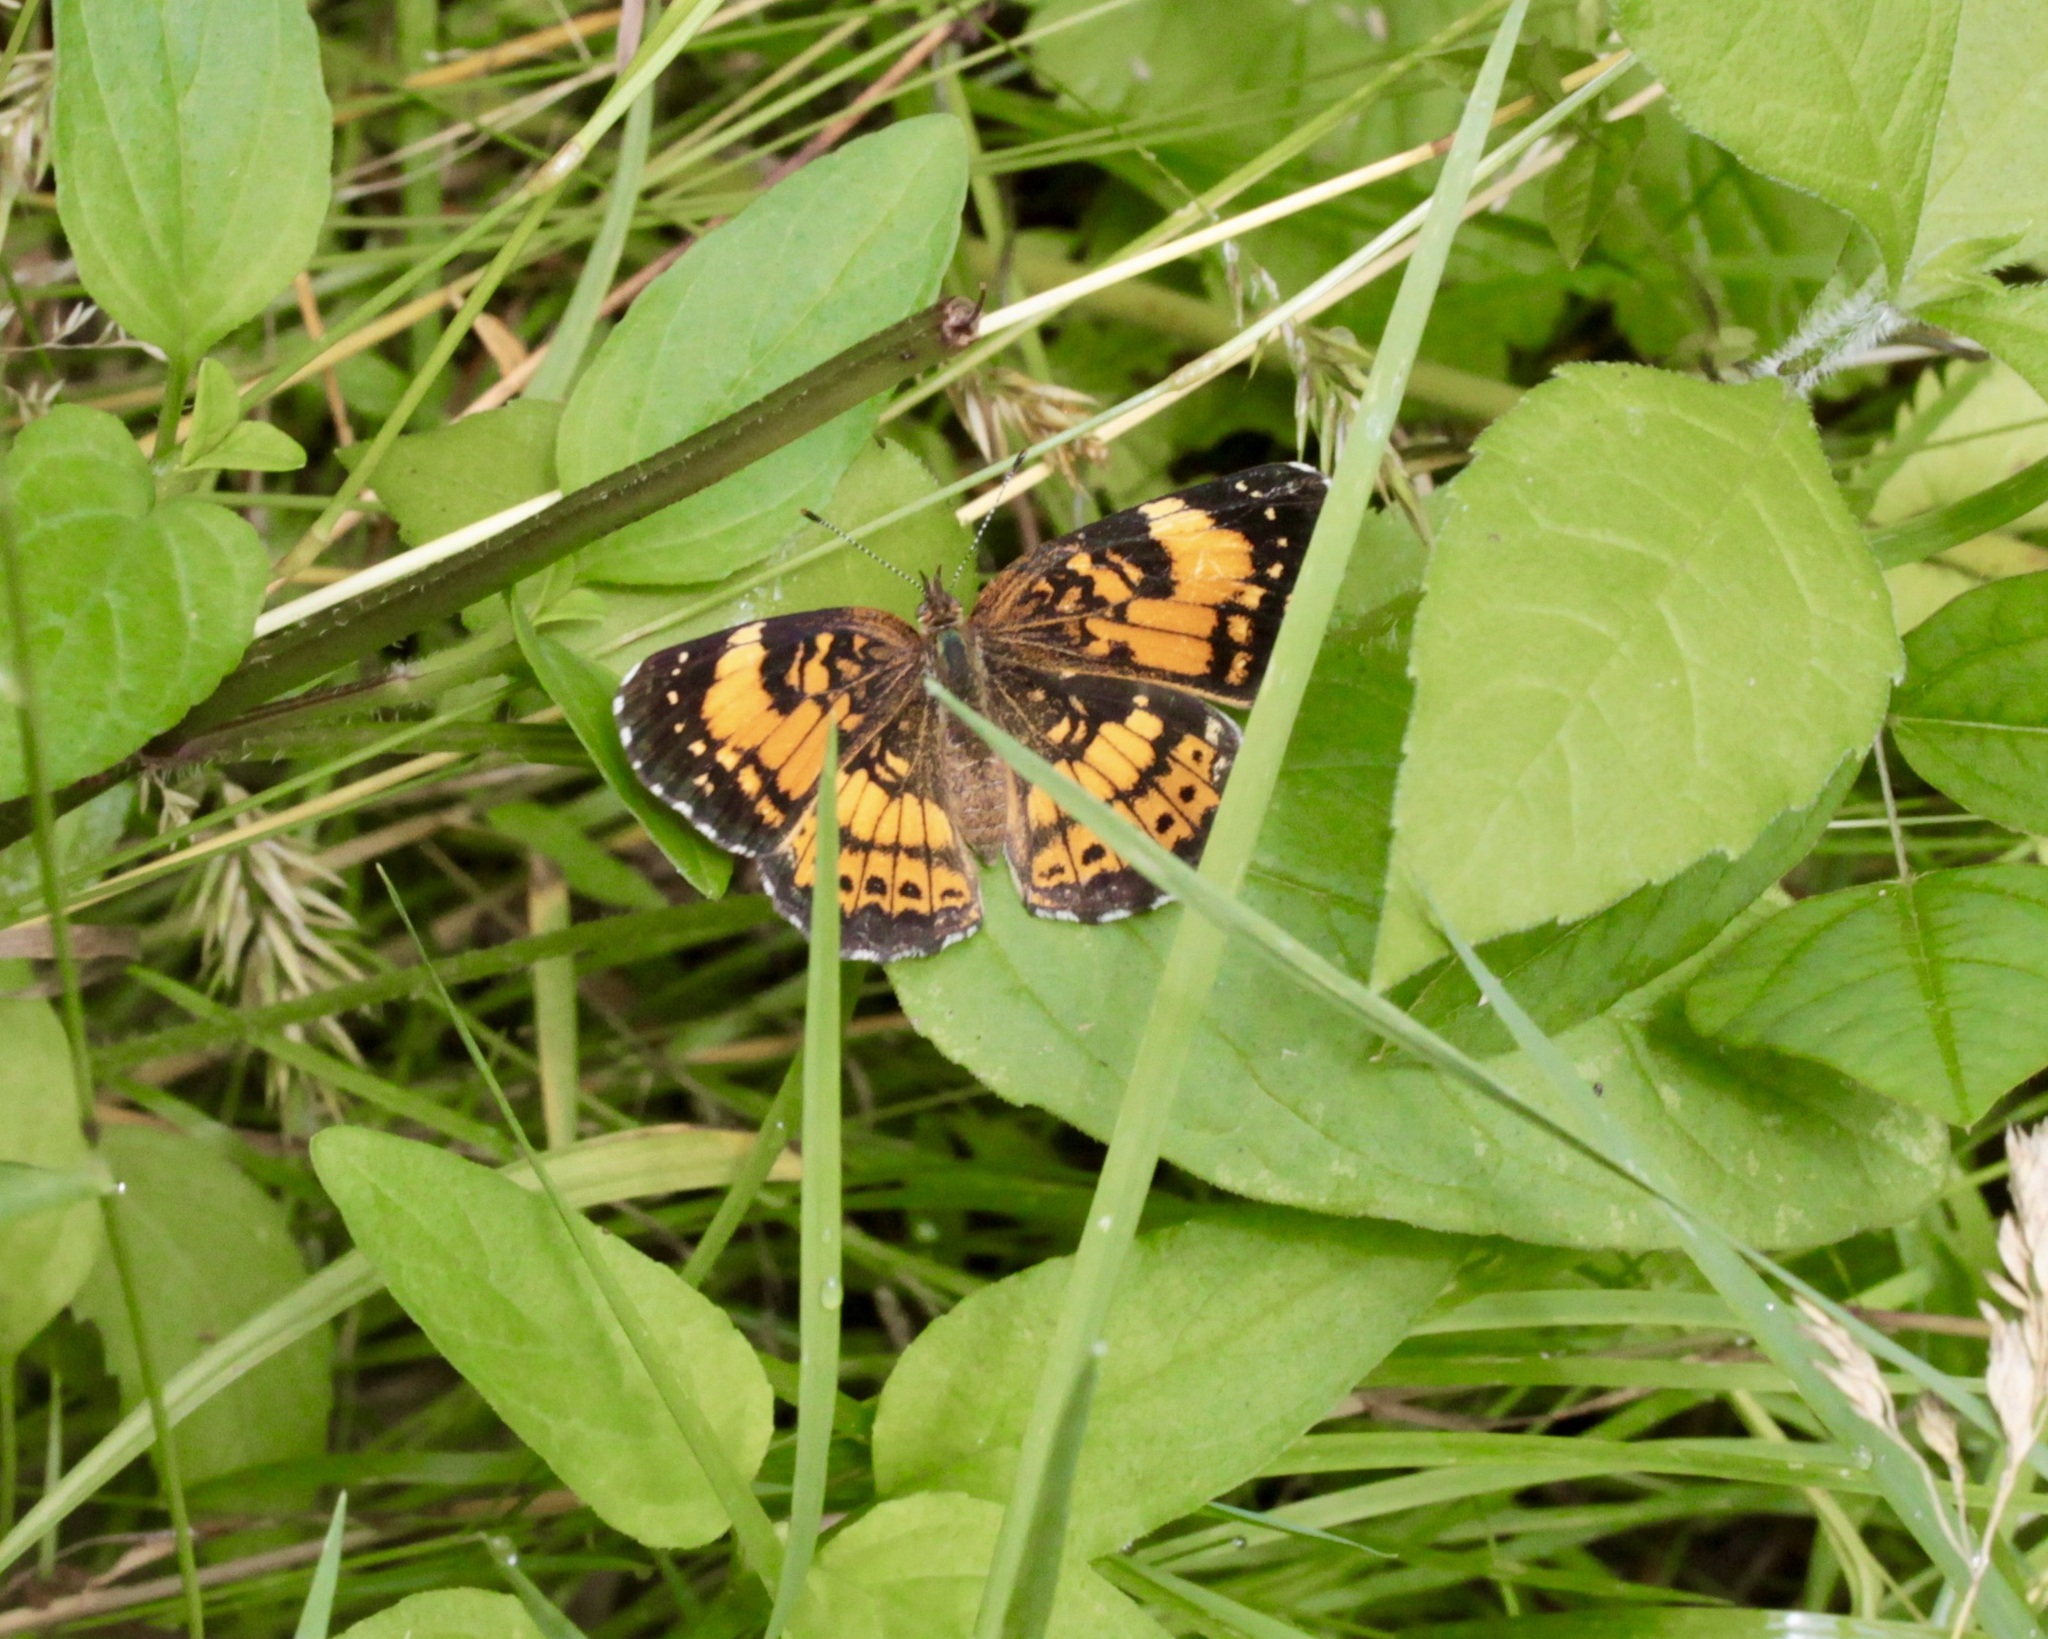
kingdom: Animalia
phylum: Arthropoda
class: Insecta
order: Lepidoptera
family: Nymphalidae
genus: Chlosyne
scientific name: Chlosyne nycteis
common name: Silvery checkerspot
